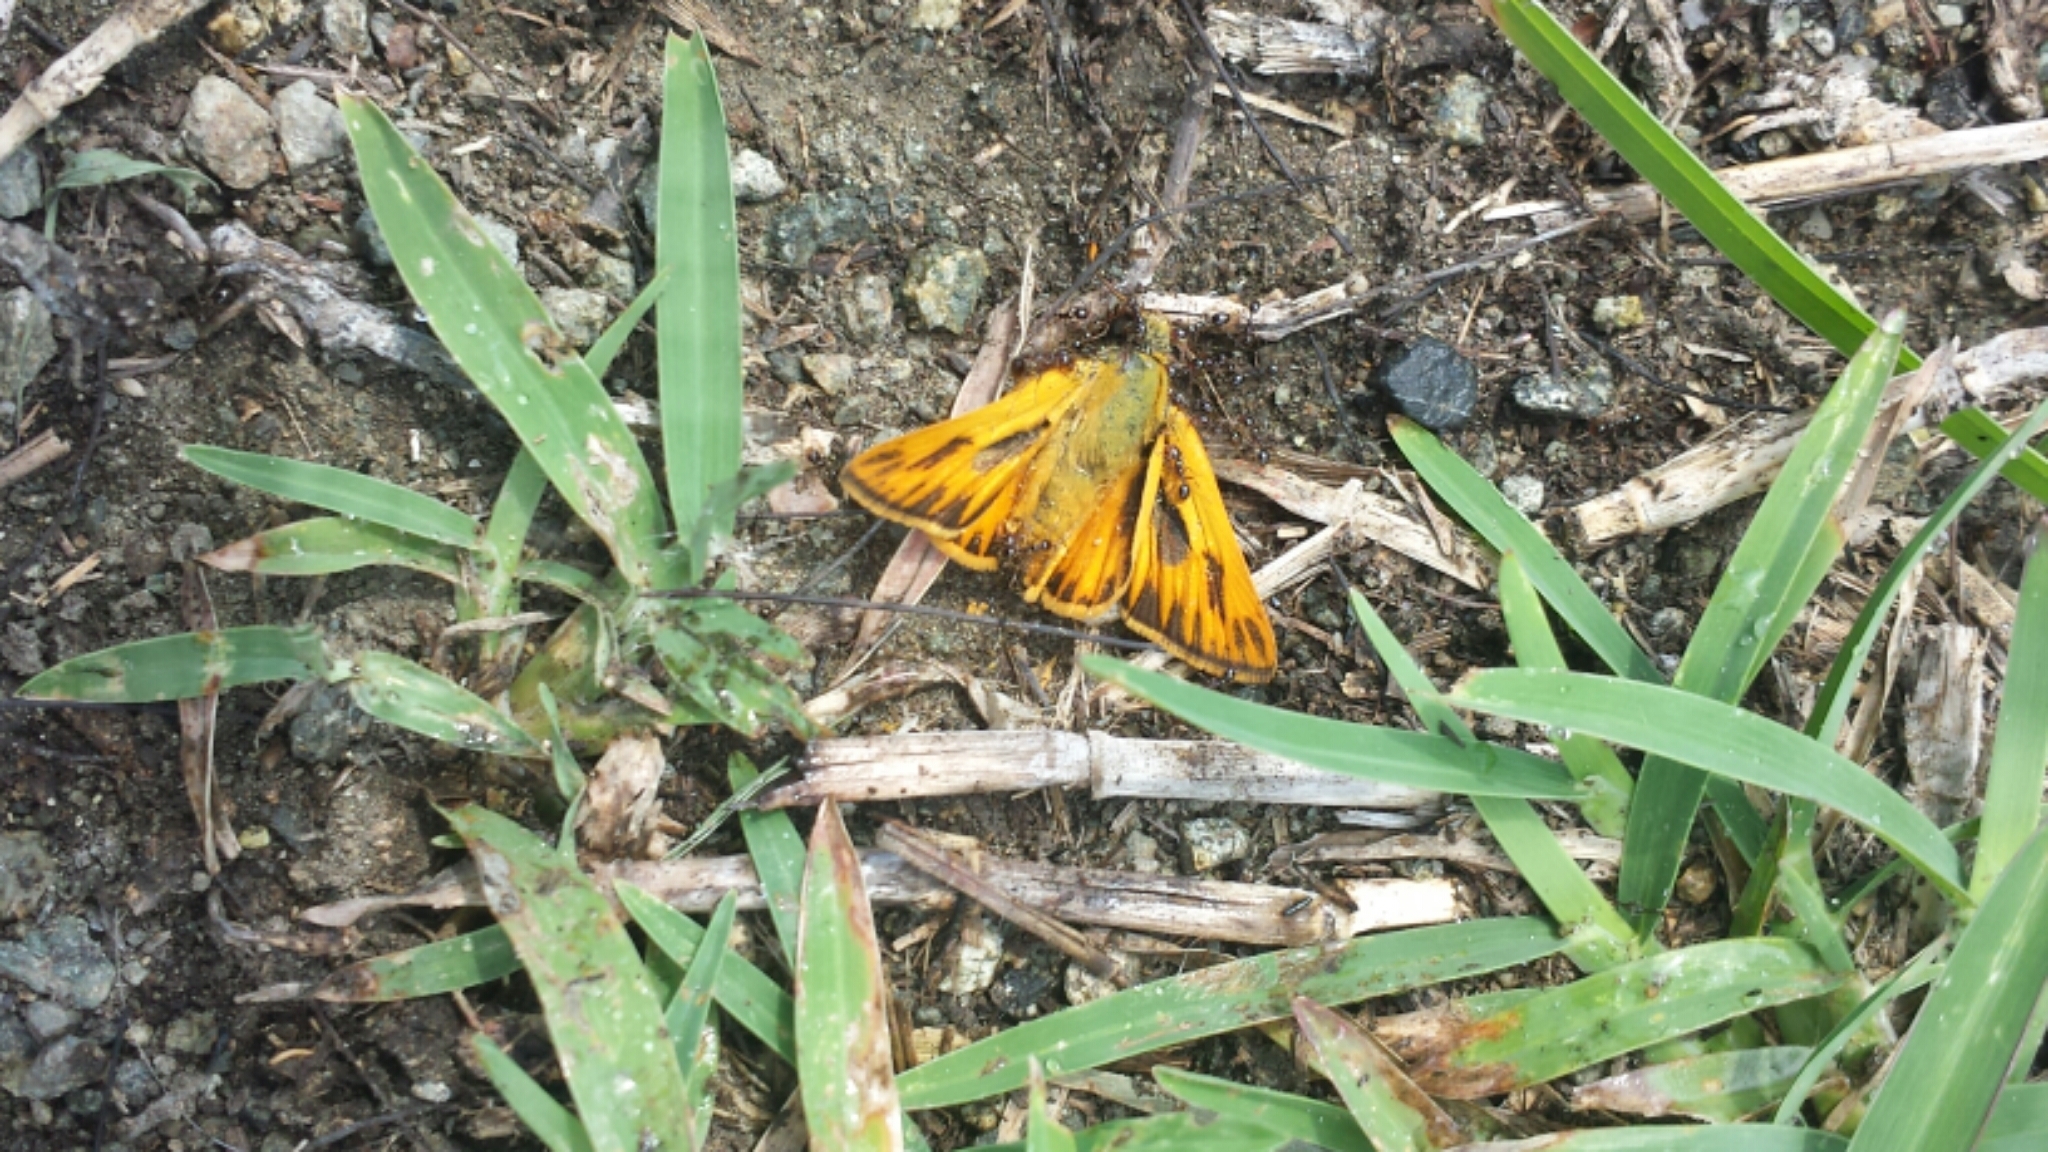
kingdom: Animalia
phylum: Arthropoda
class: Insecta
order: Lepidoptera
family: Hesperiidae
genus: Hylephila
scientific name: Hylephila phyleus
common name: Fiery skipper
